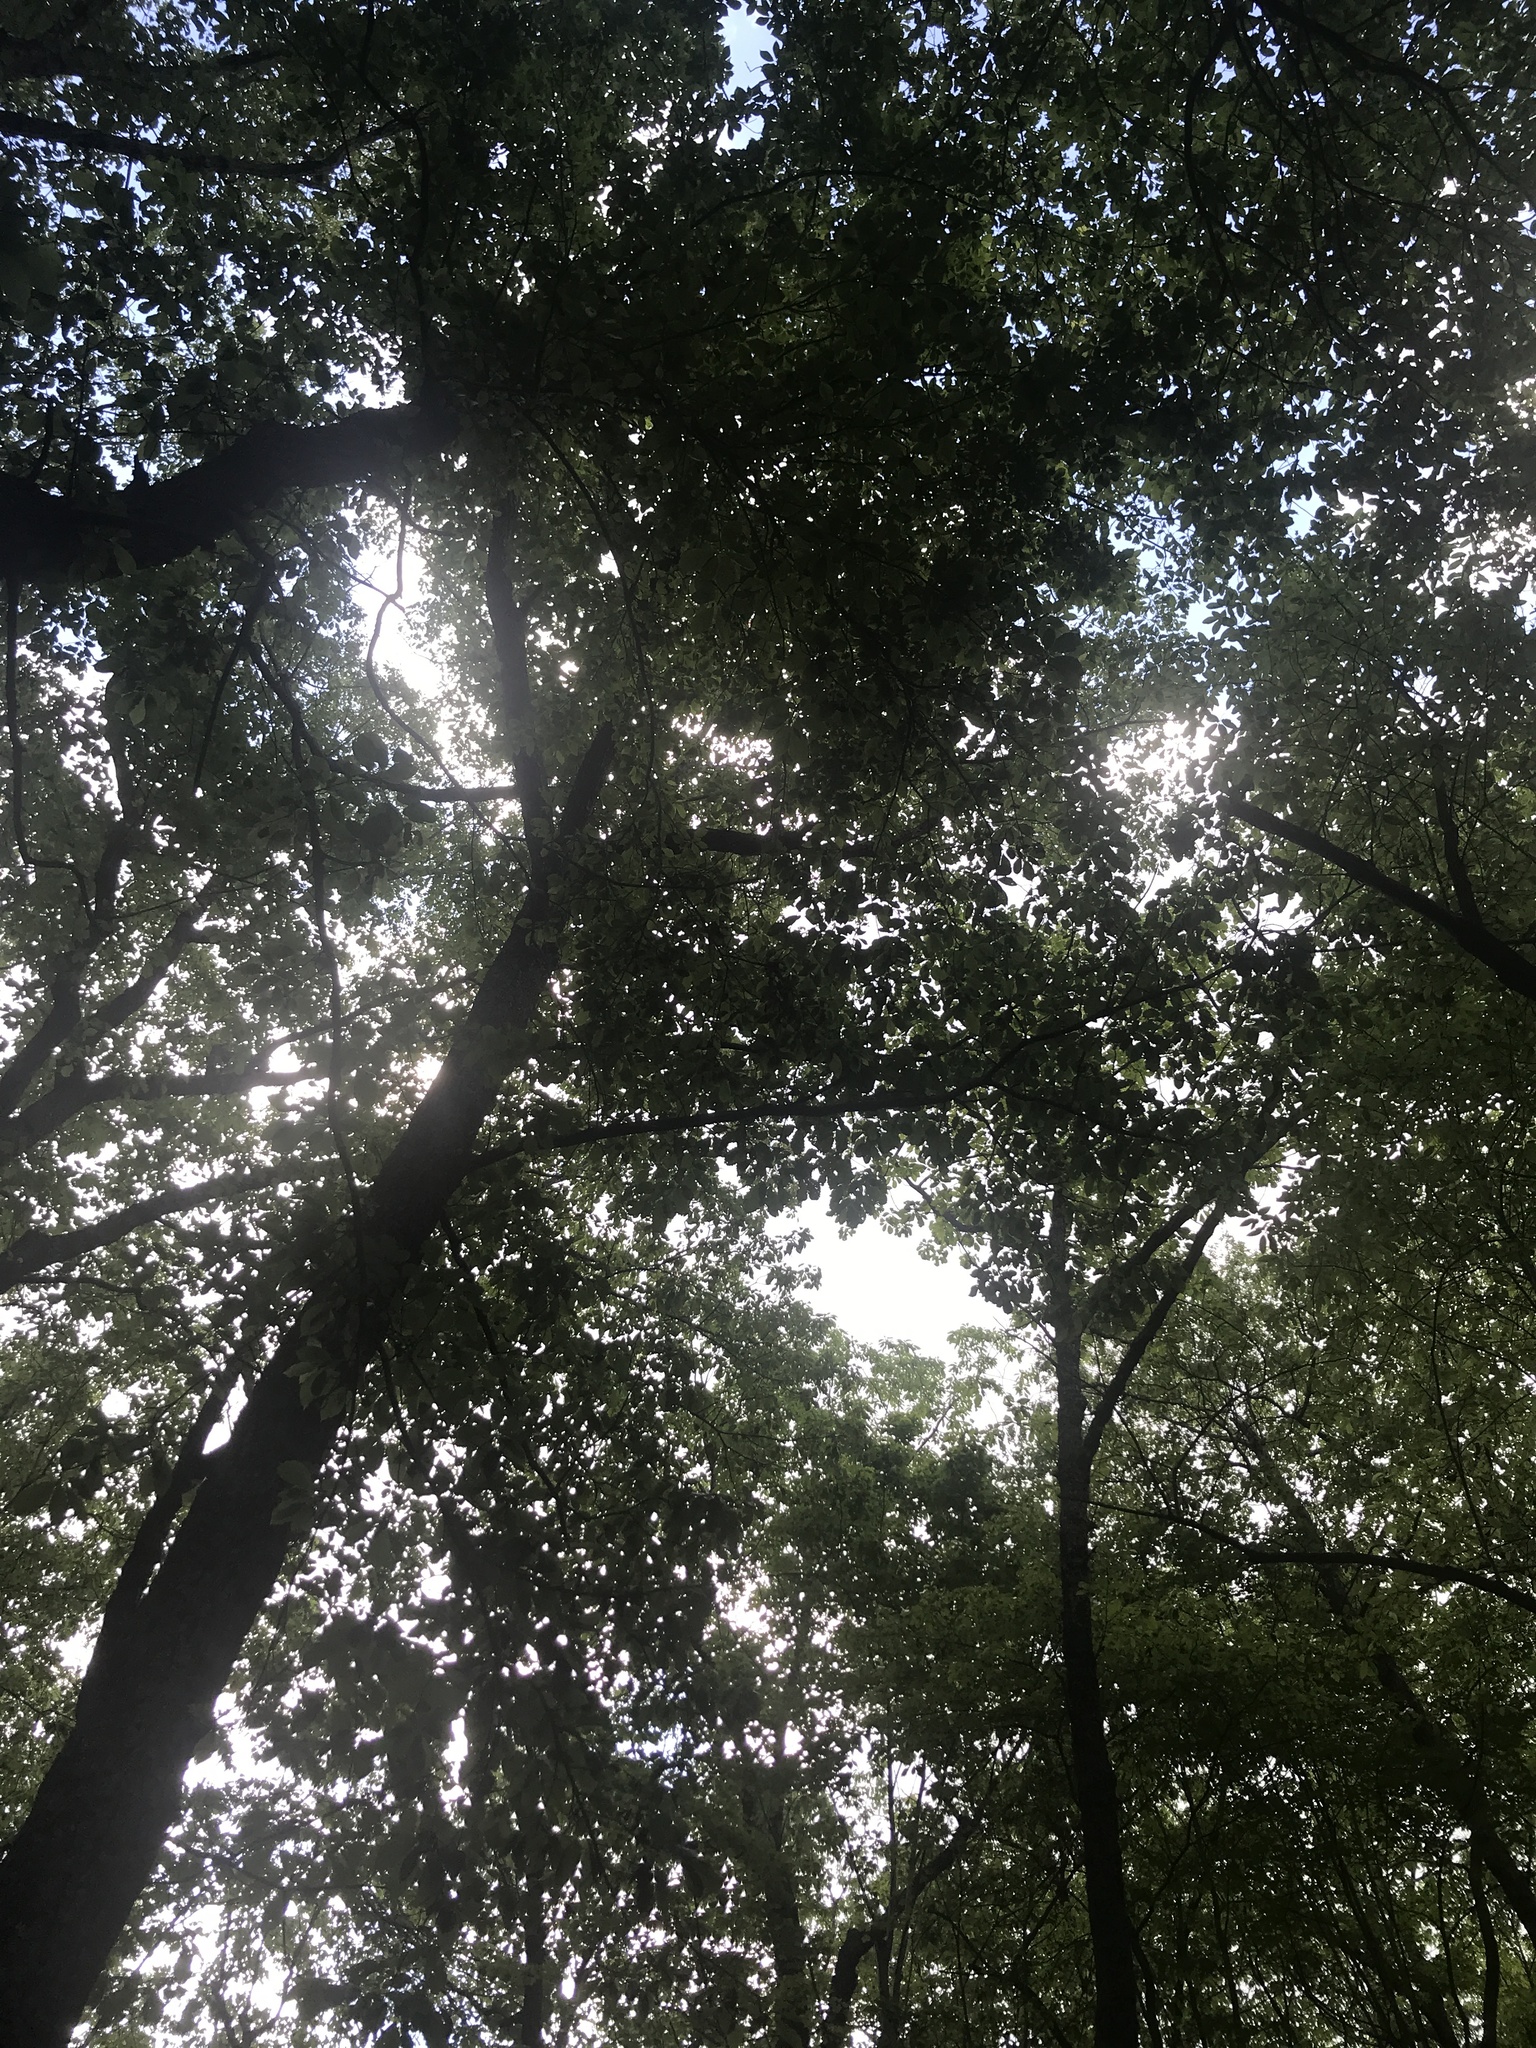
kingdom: Plantae
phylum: Tracheophyta
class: Magnoliopsida
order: Ericales
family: Ebenaceae
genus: Diospyros
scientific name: Diospyros virginiana
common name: Persimmon
